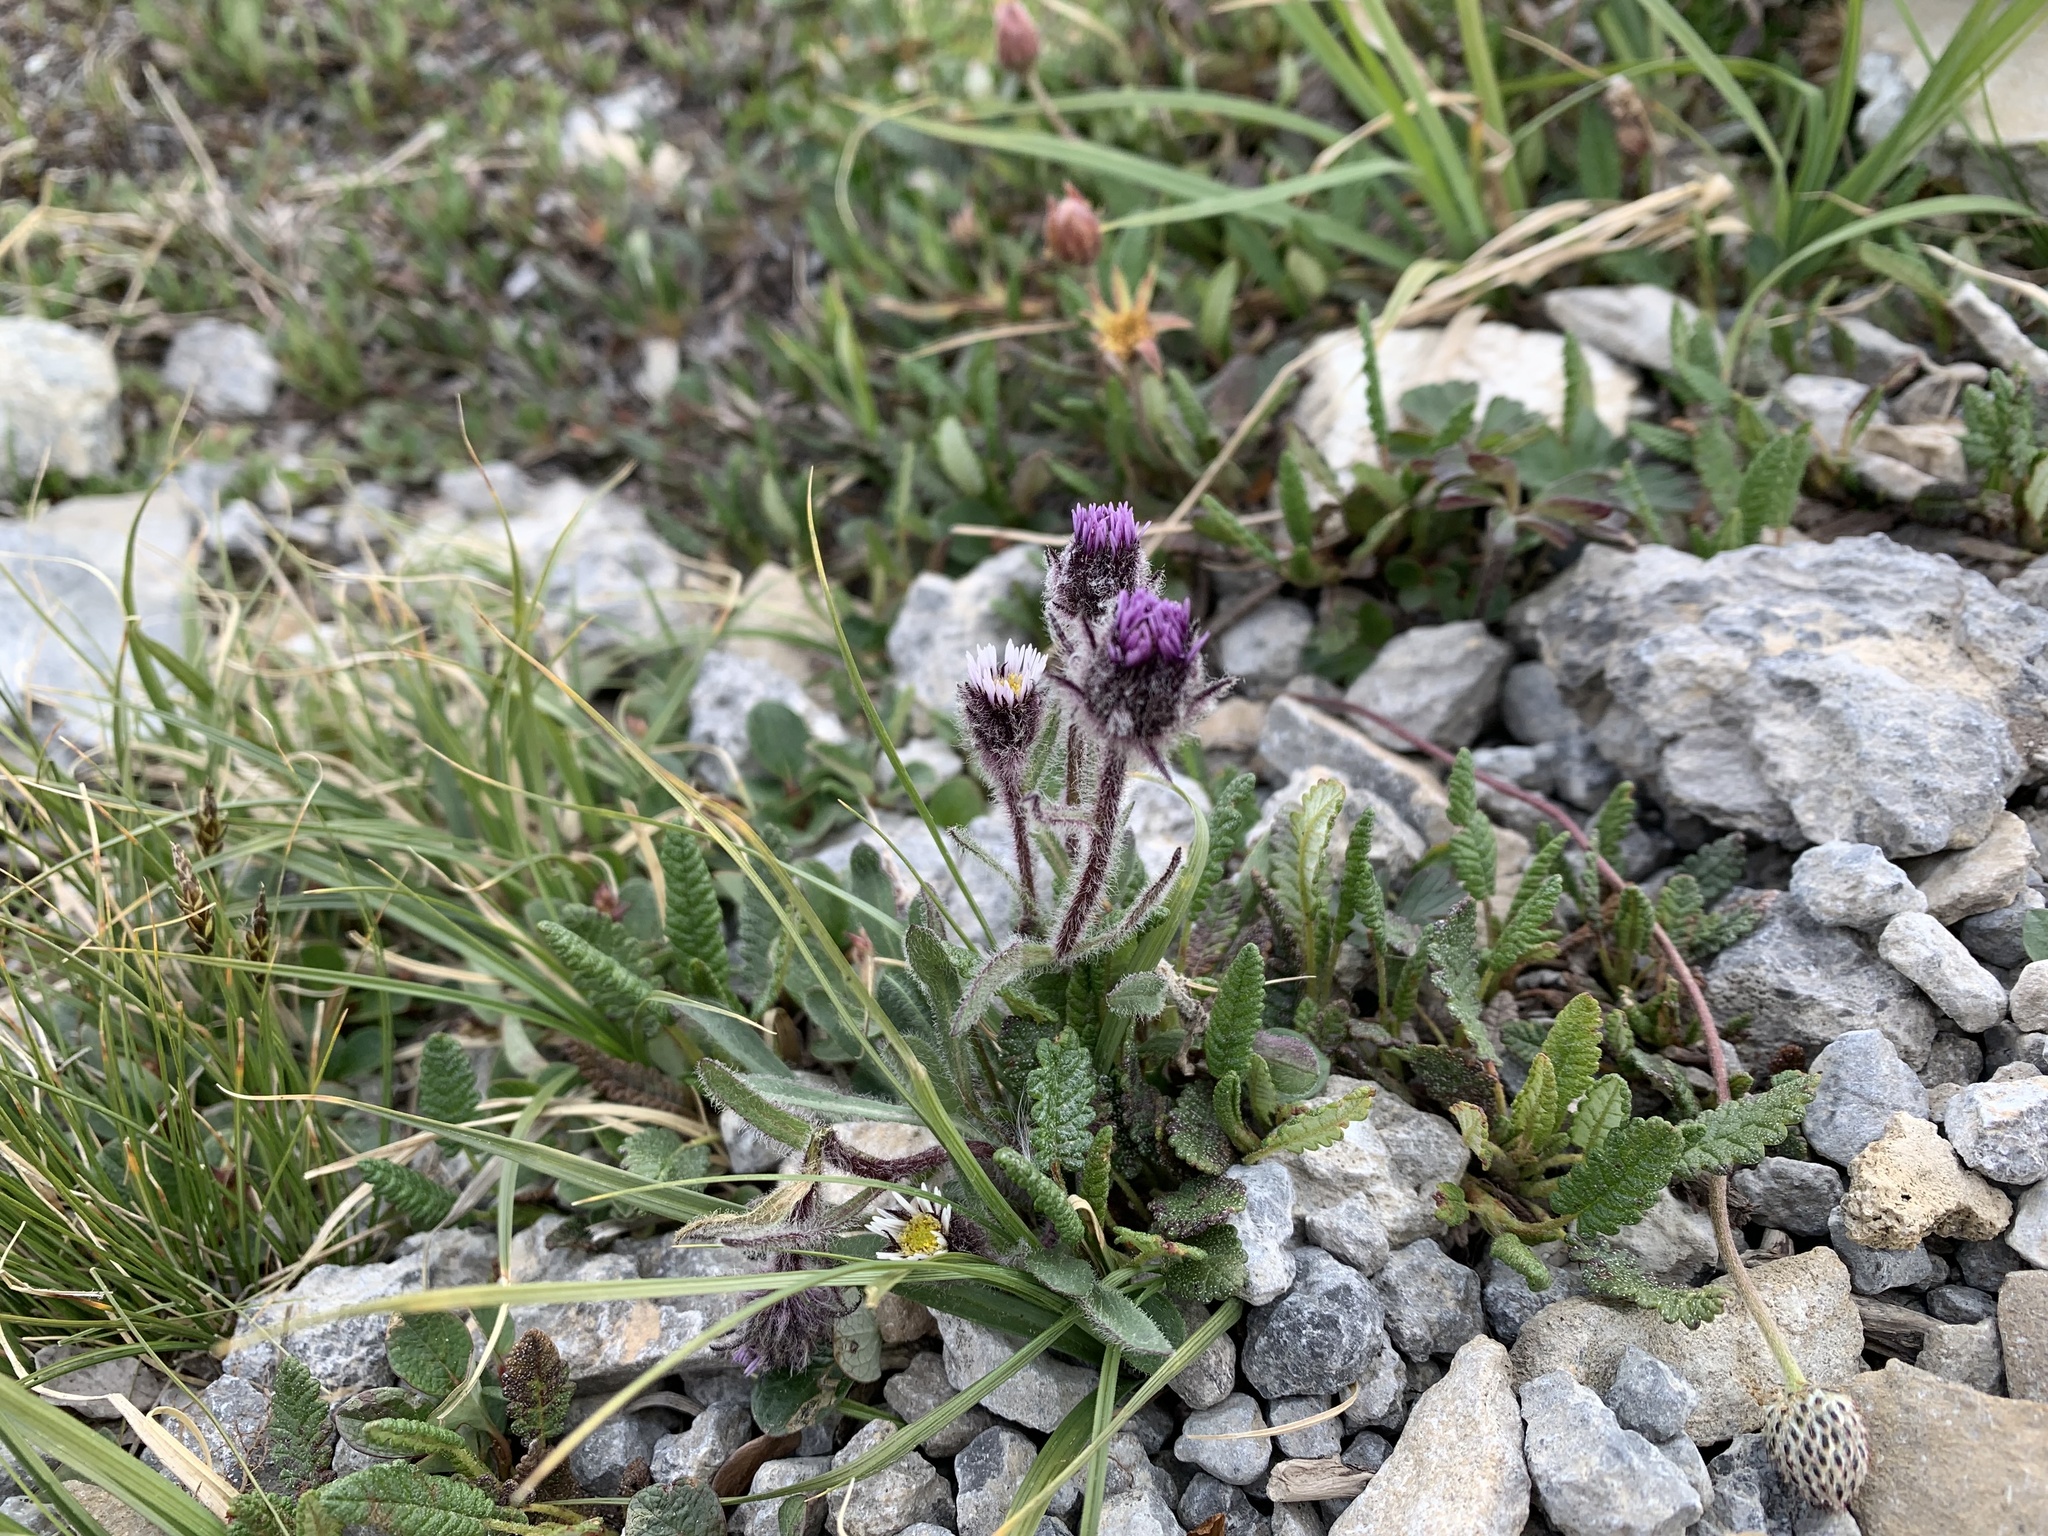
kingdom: Plantae
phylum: Tracheophyta
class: Magnoliopsida
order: Asterales
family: Asteraceae
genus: Erigeron
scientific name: Erigeron humilis
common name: Arctic-alpine fleabane
